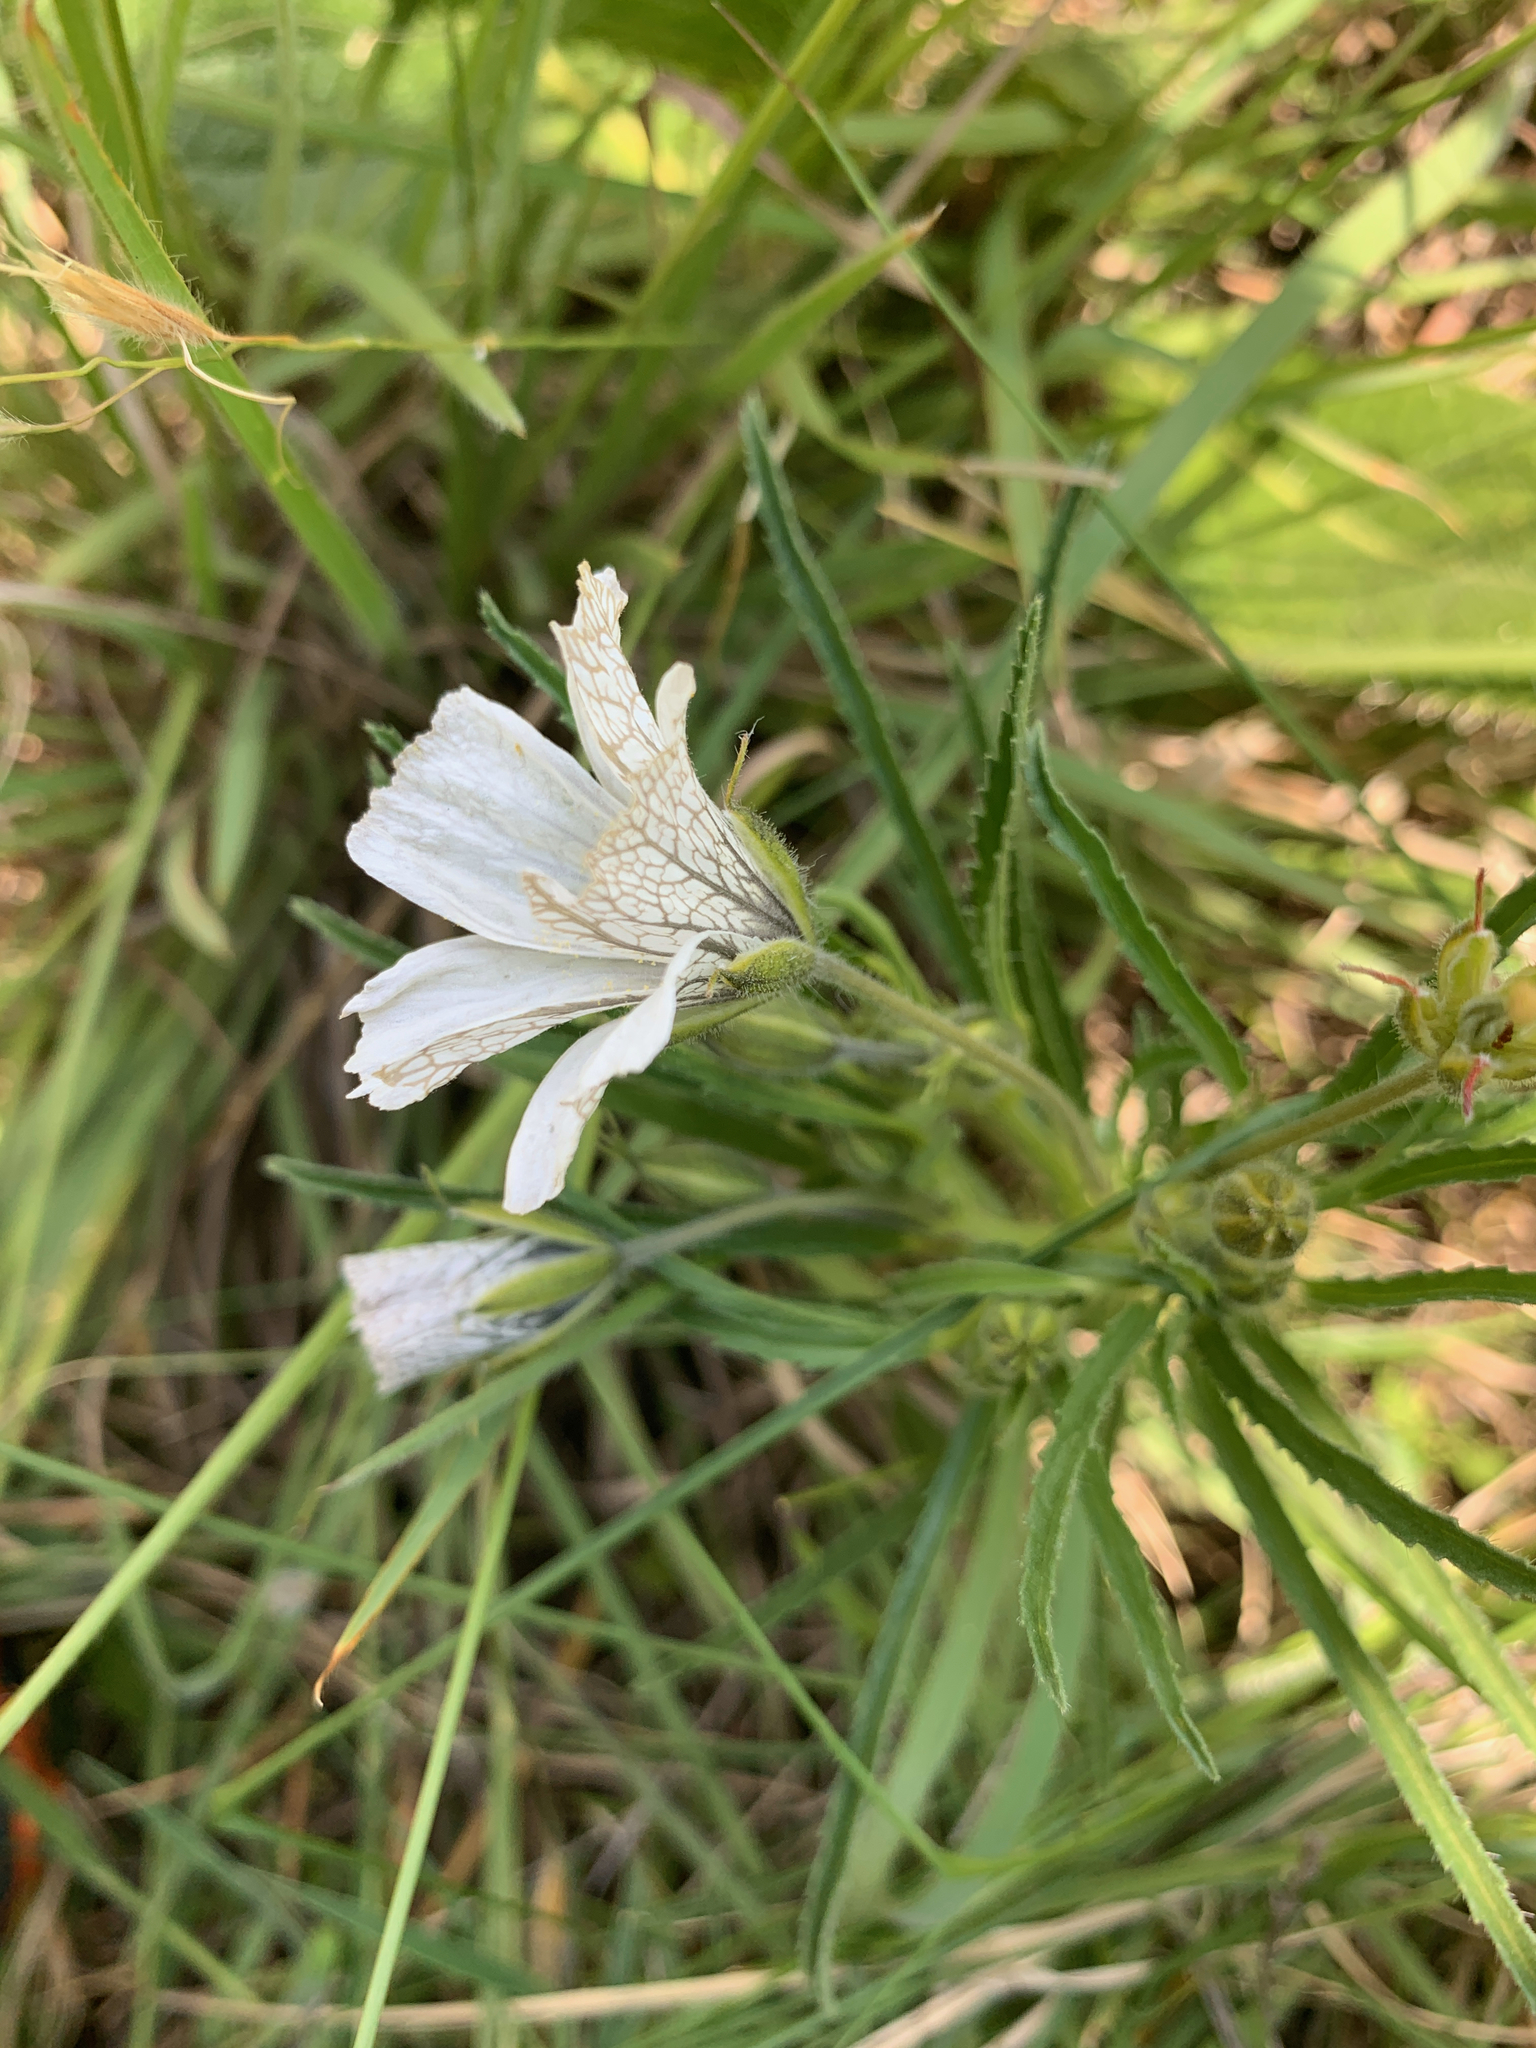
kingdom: Plantae
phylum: Tracheophyta
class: Magnoliopsida
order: Geraniales
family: Geraniaceae
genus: Monsonia
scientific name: Monsonia attenuata
